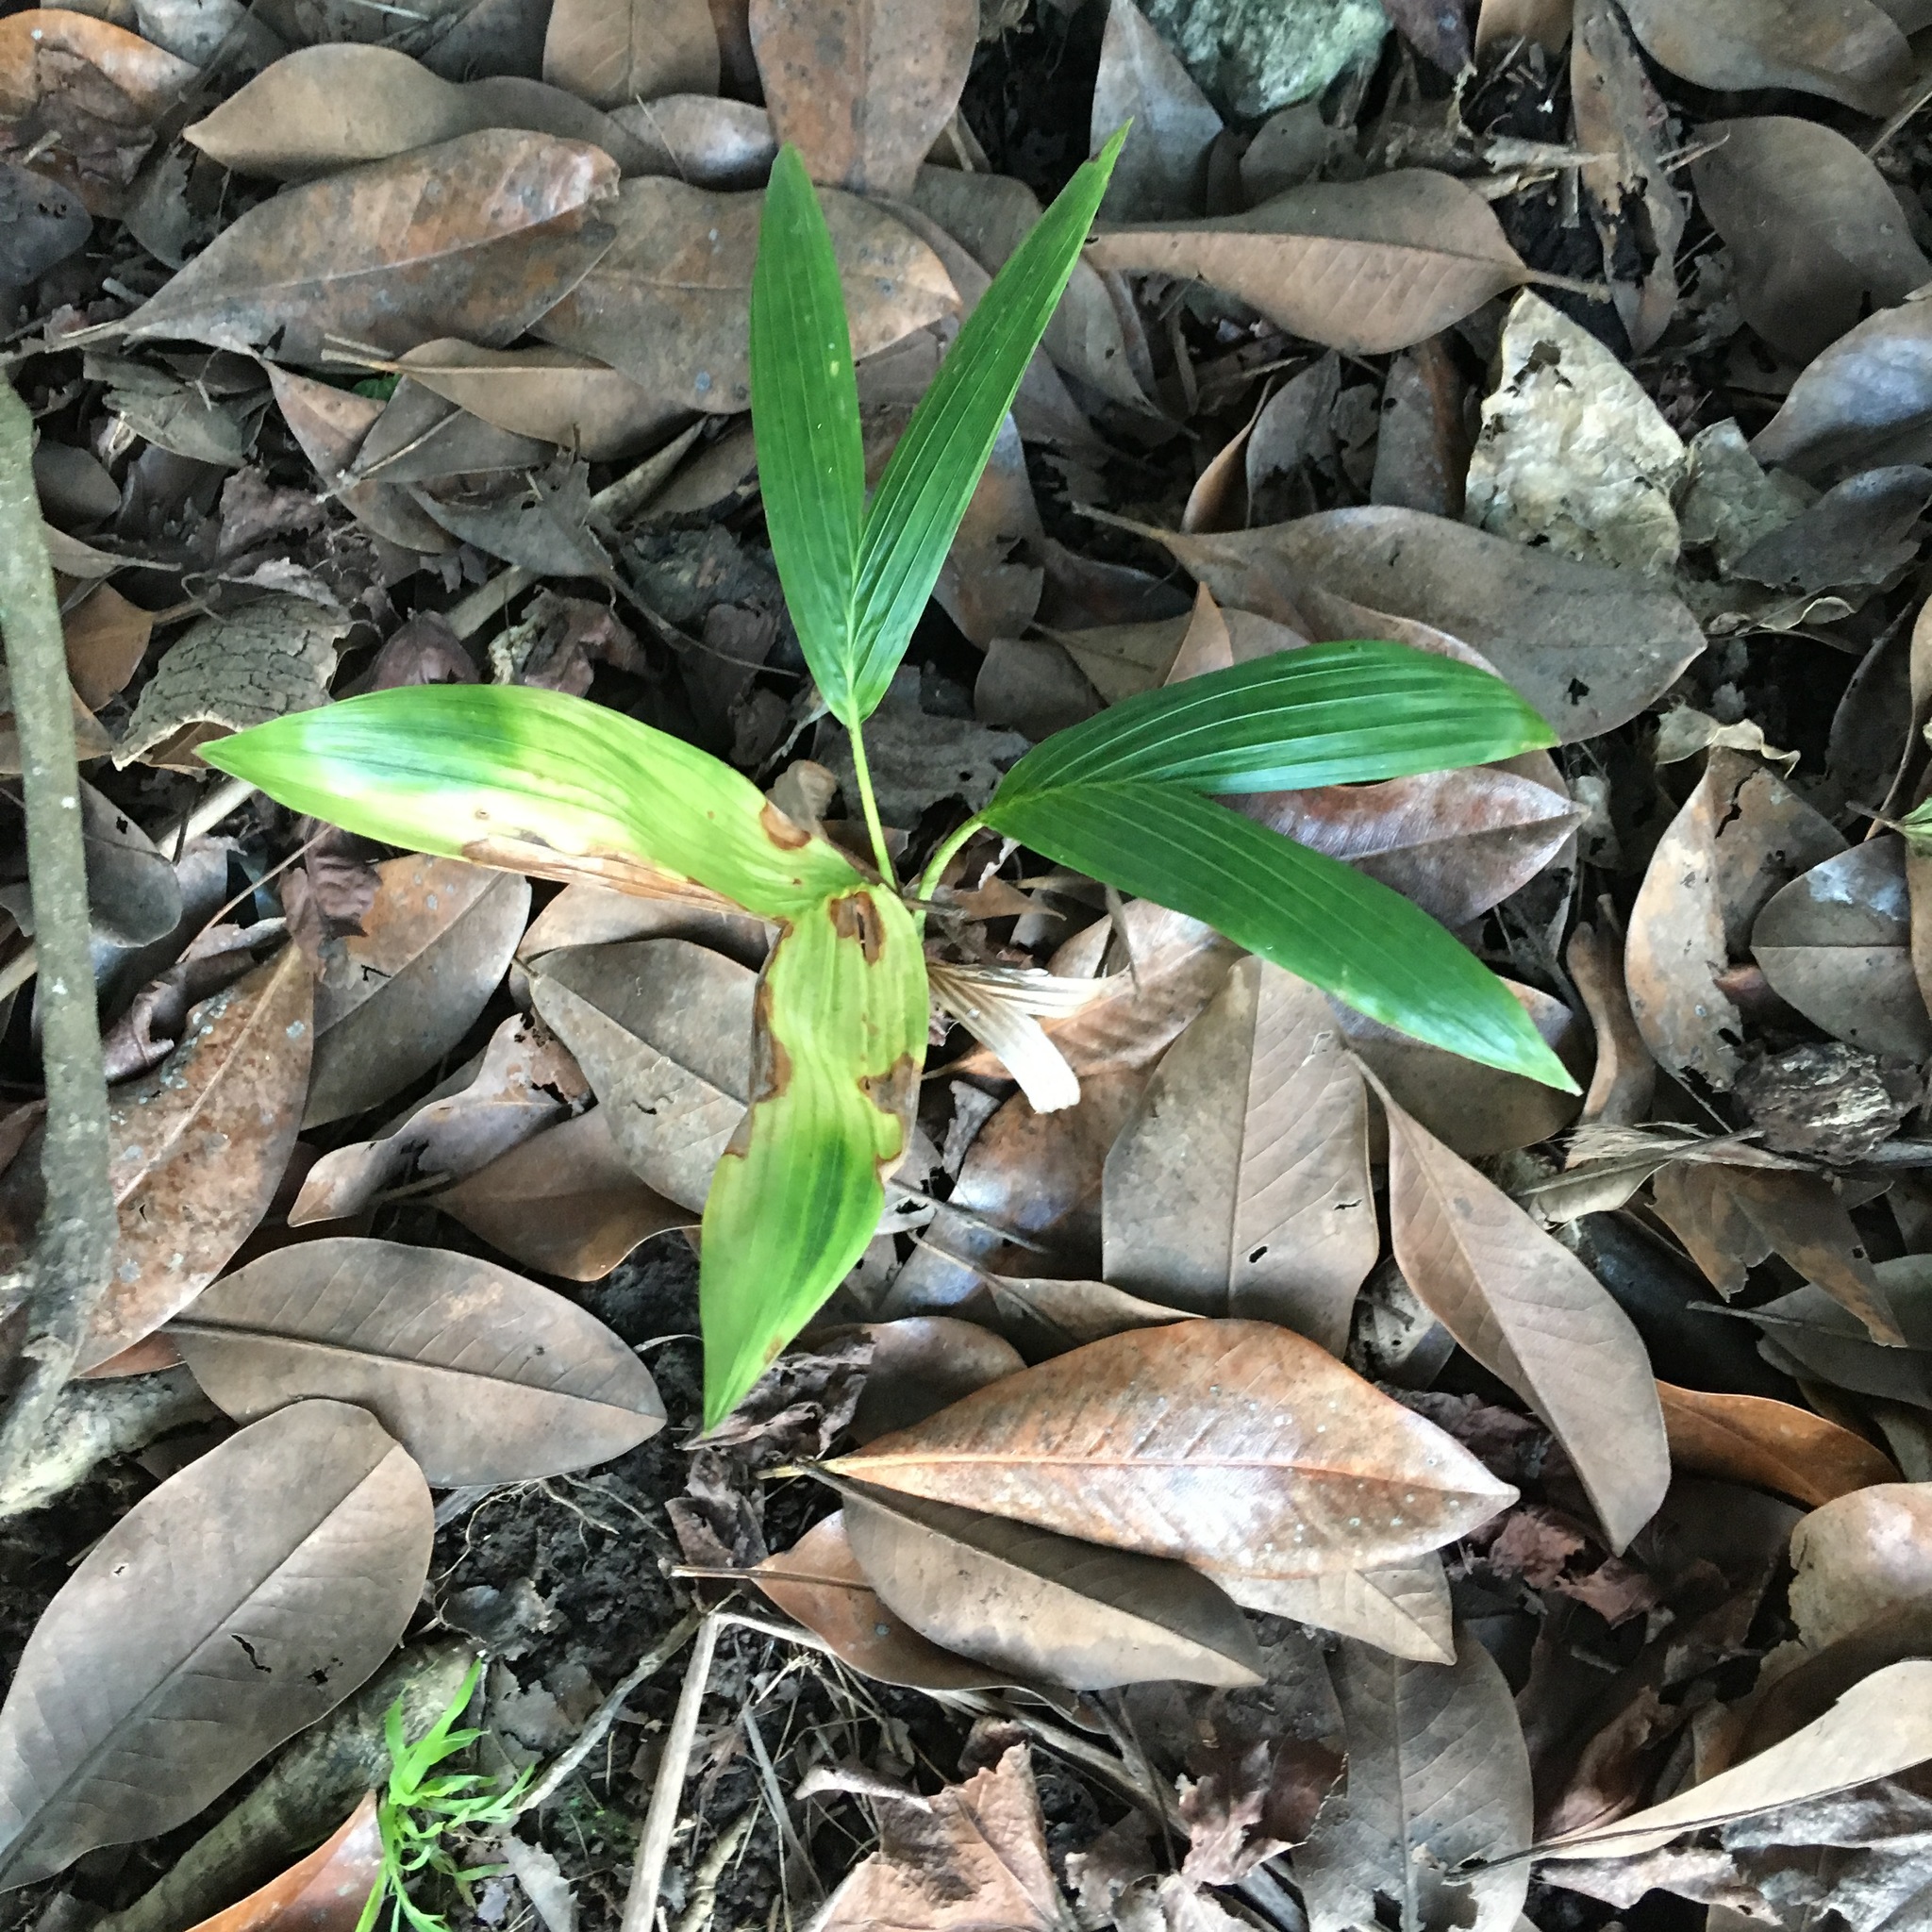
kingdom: Plantae
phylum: Tracheophyta
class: Liliopsida
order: Arecales
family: Arecaceae
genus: Archontophoenix
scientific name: Archontophoenix cunninghamiana
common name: Piccabeen bangalow palm
